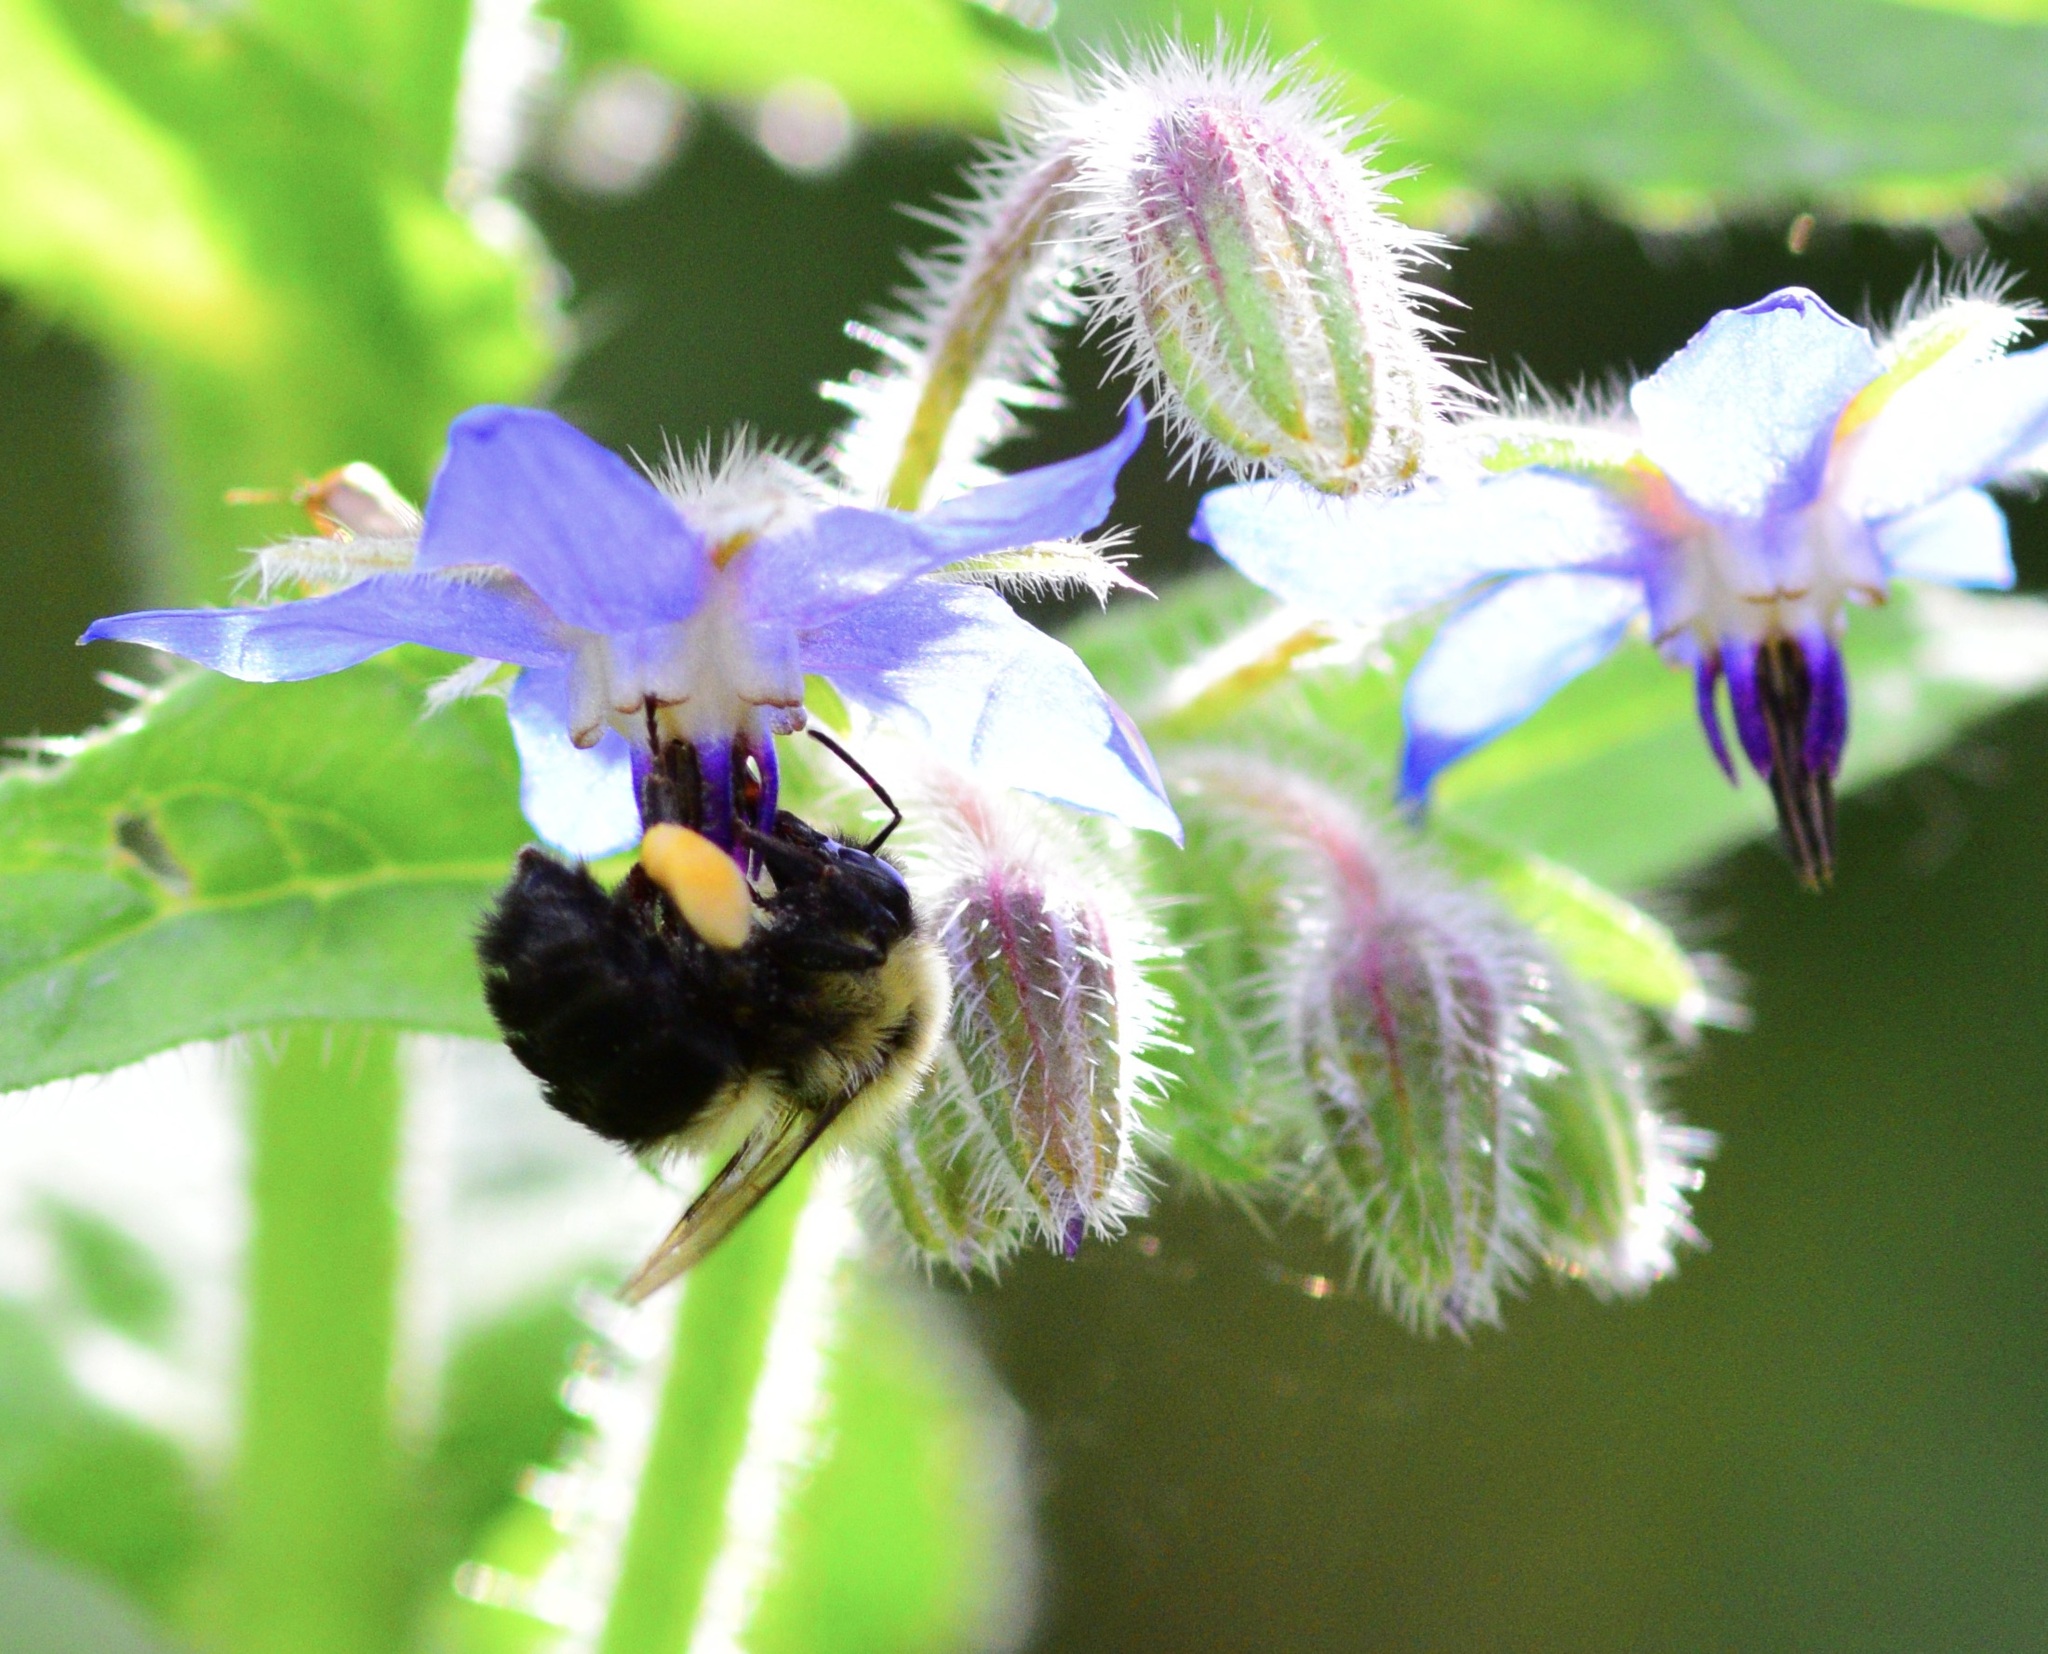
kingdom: Animalia
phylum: Arthropoda
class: Insecta
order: Hymenoptera
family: Apidae
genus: Bombus
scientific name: Bombus impatiens
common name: Common eastern bumble bee
